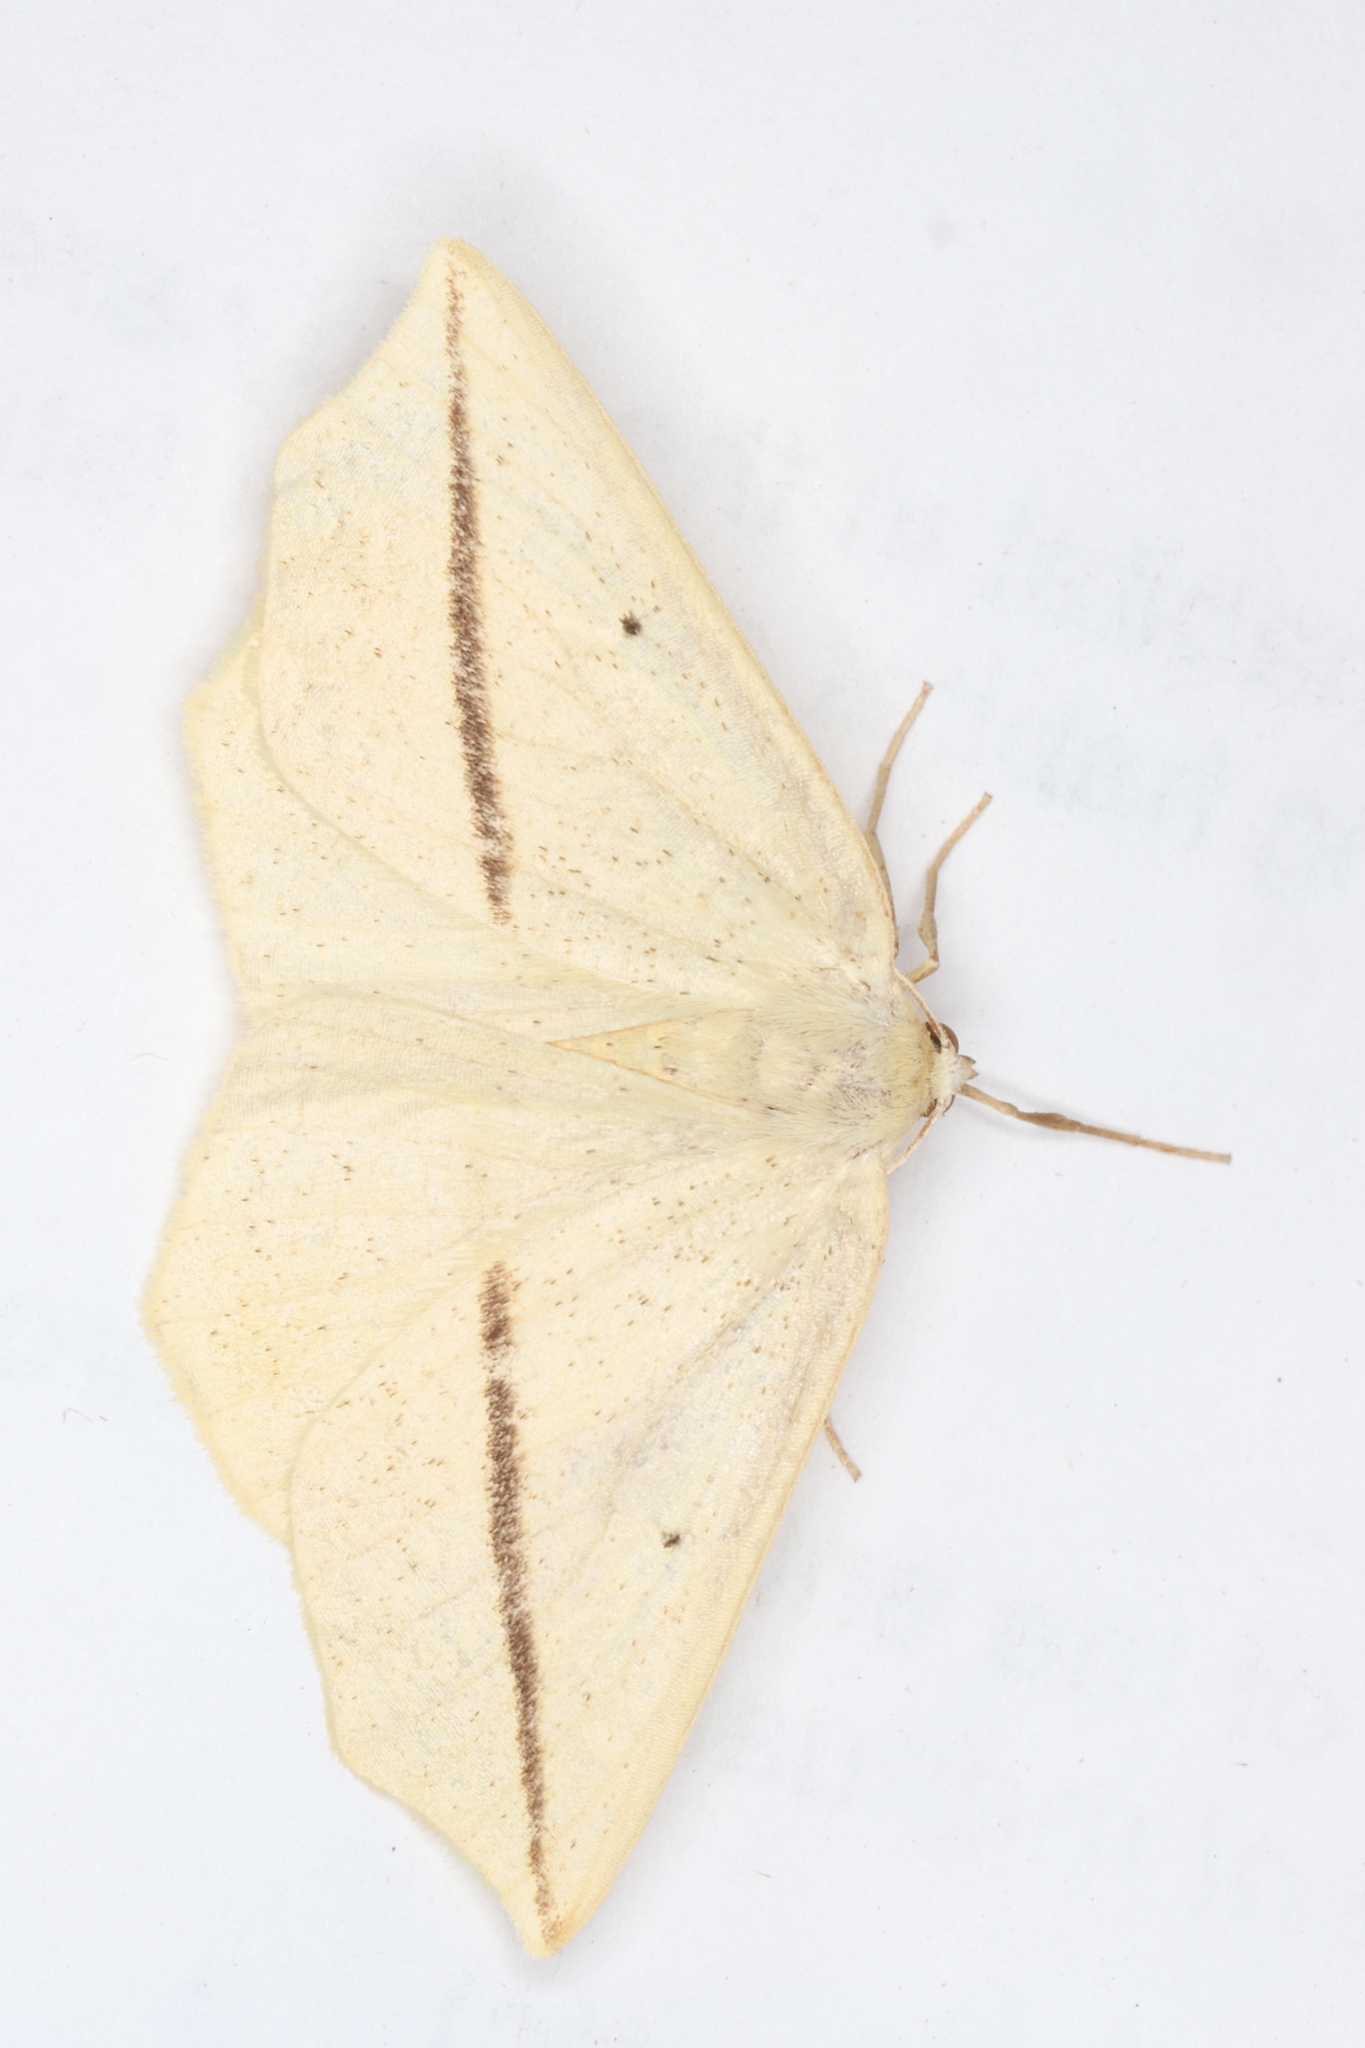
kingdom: Animalia
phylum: Arthropoda
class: Insecta
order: Lepidoptera
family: Geometridae
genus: Tetracis
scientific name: Tetracis crocallata
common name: Yellow slant-line
